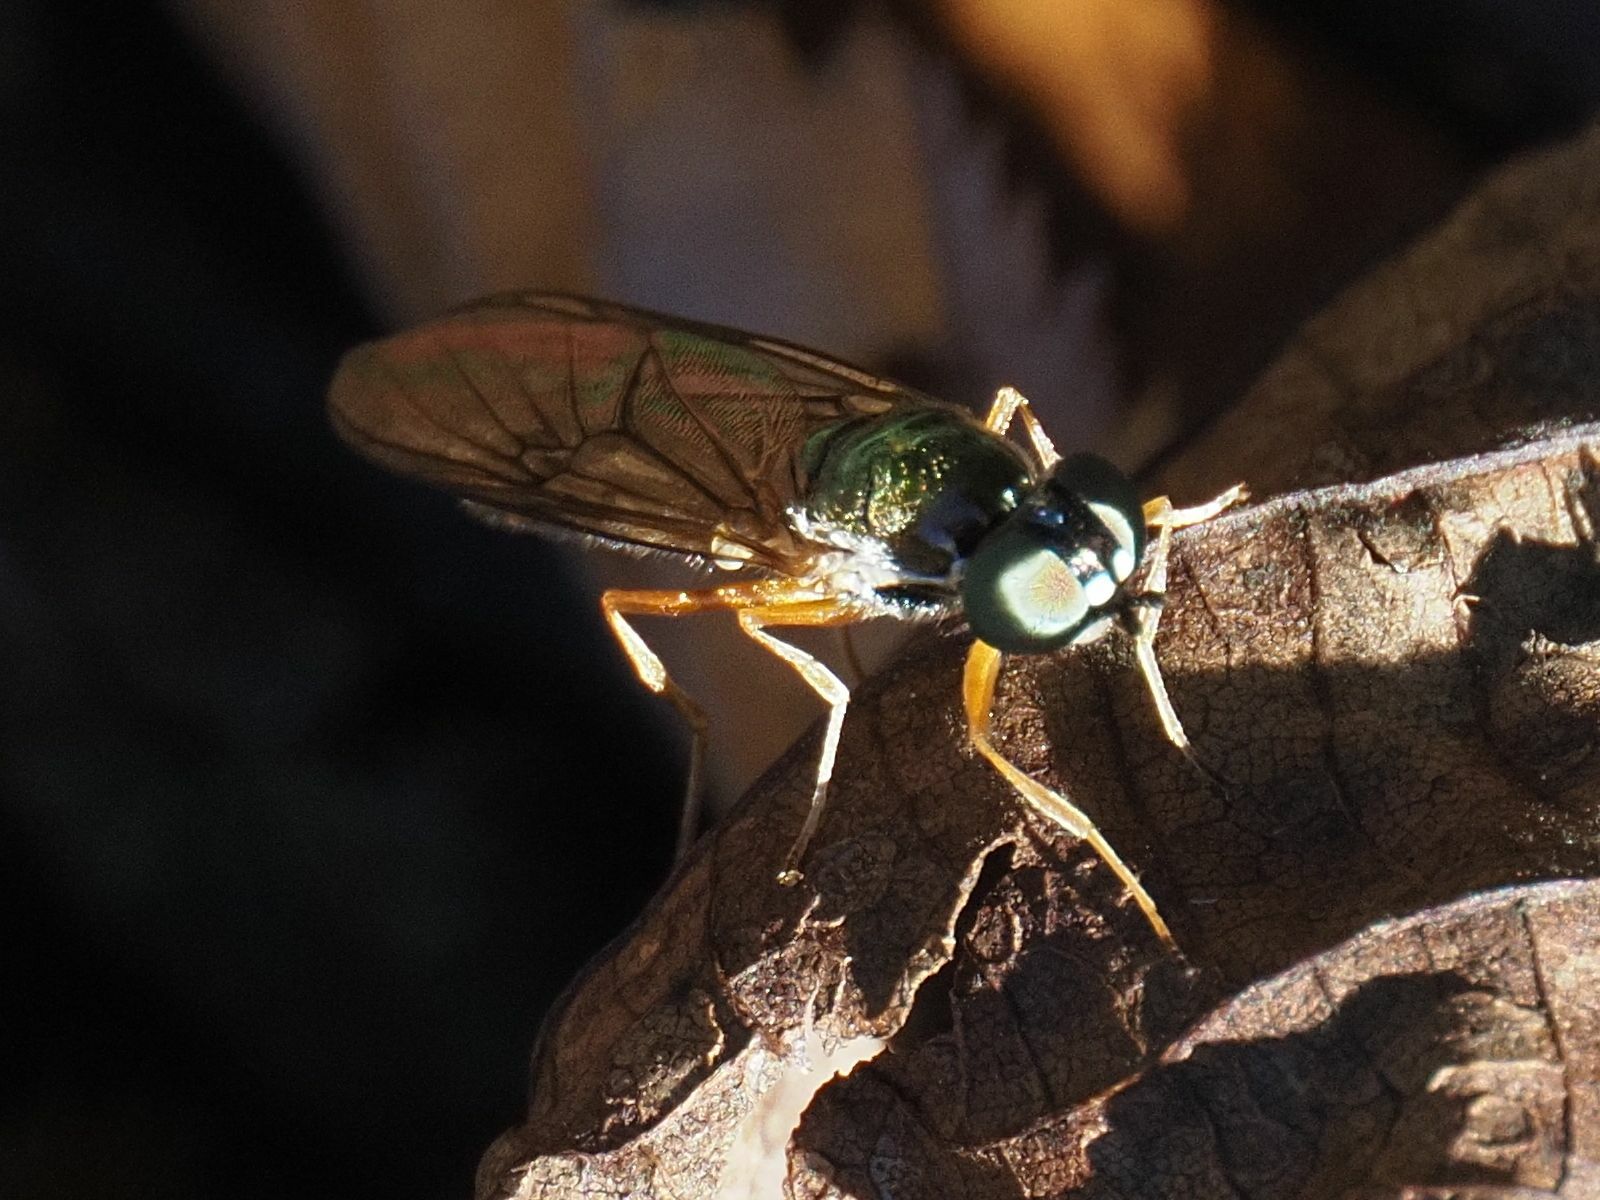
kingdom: Animalia
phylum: Arthropoda
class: Insecta
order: Diptera
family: Stratiomyidae
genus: Sargus
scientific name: Sargus bipunctatus
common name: Twin-spot centurion
